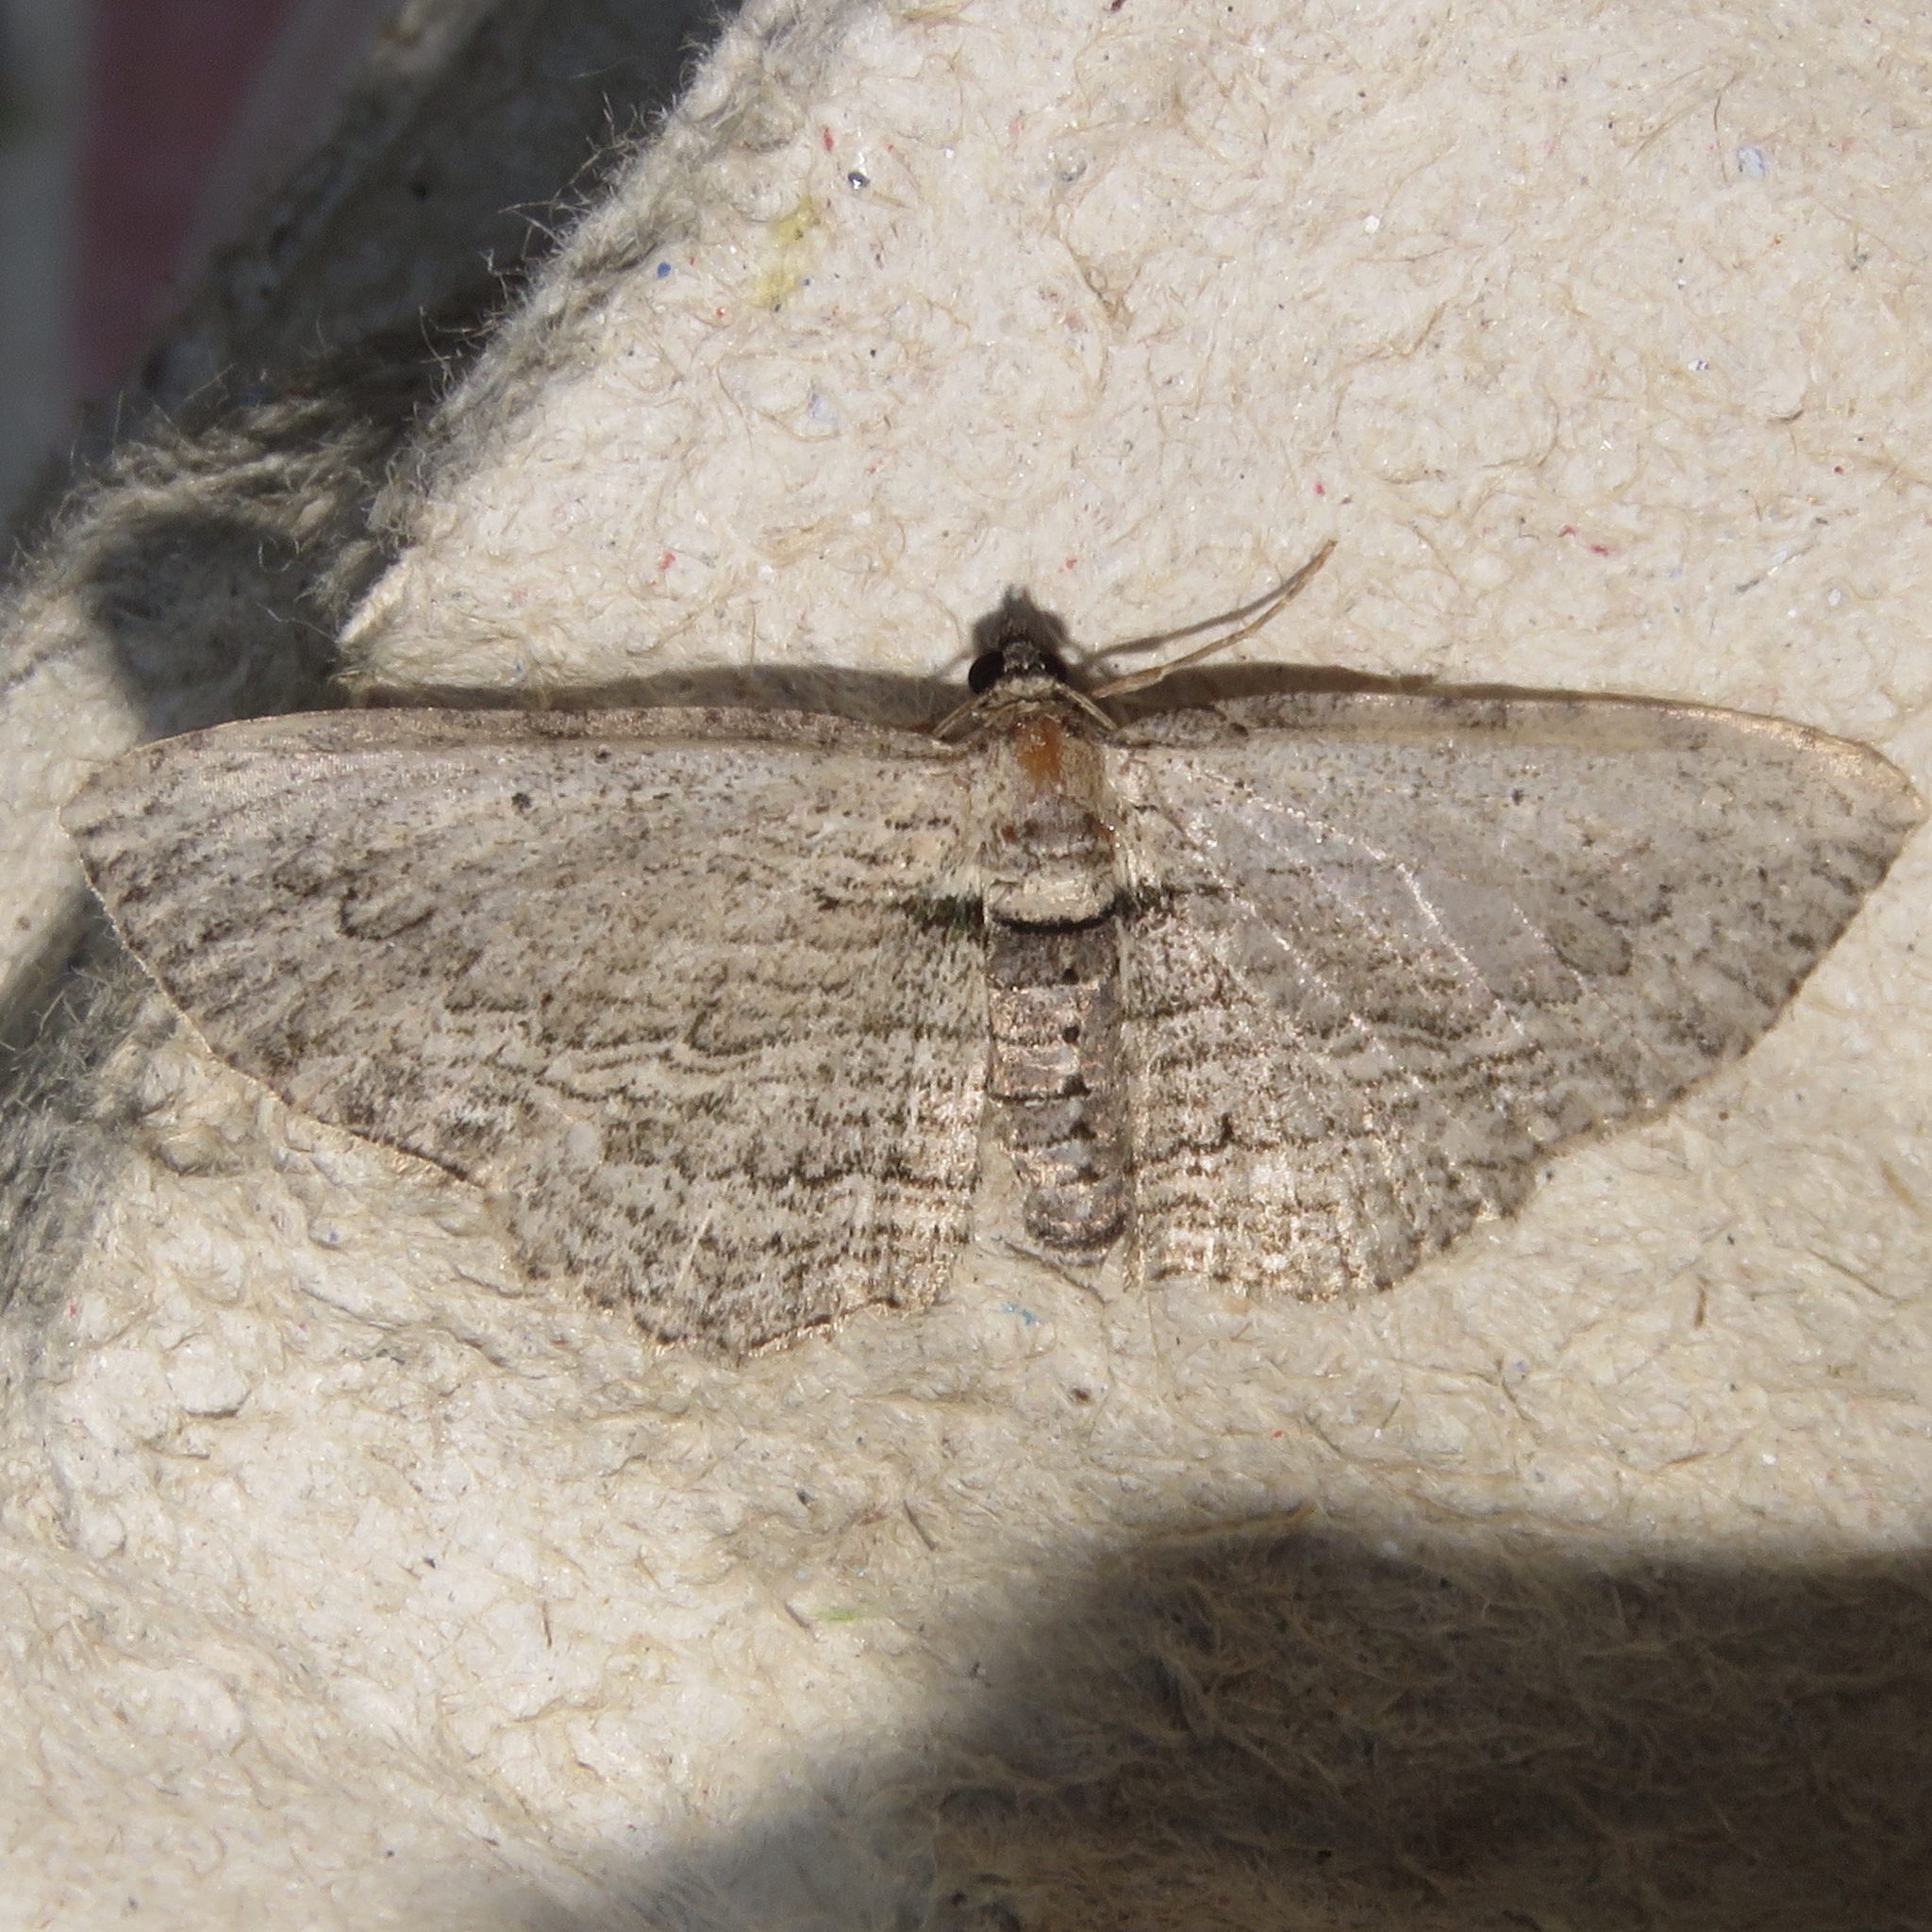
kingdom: Animalia
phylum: Arthropoda
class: Insecta
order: Lepidoptera
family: Geometridae
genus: Horisme
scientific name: Horisme intestinata
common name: Brown bark carpet
